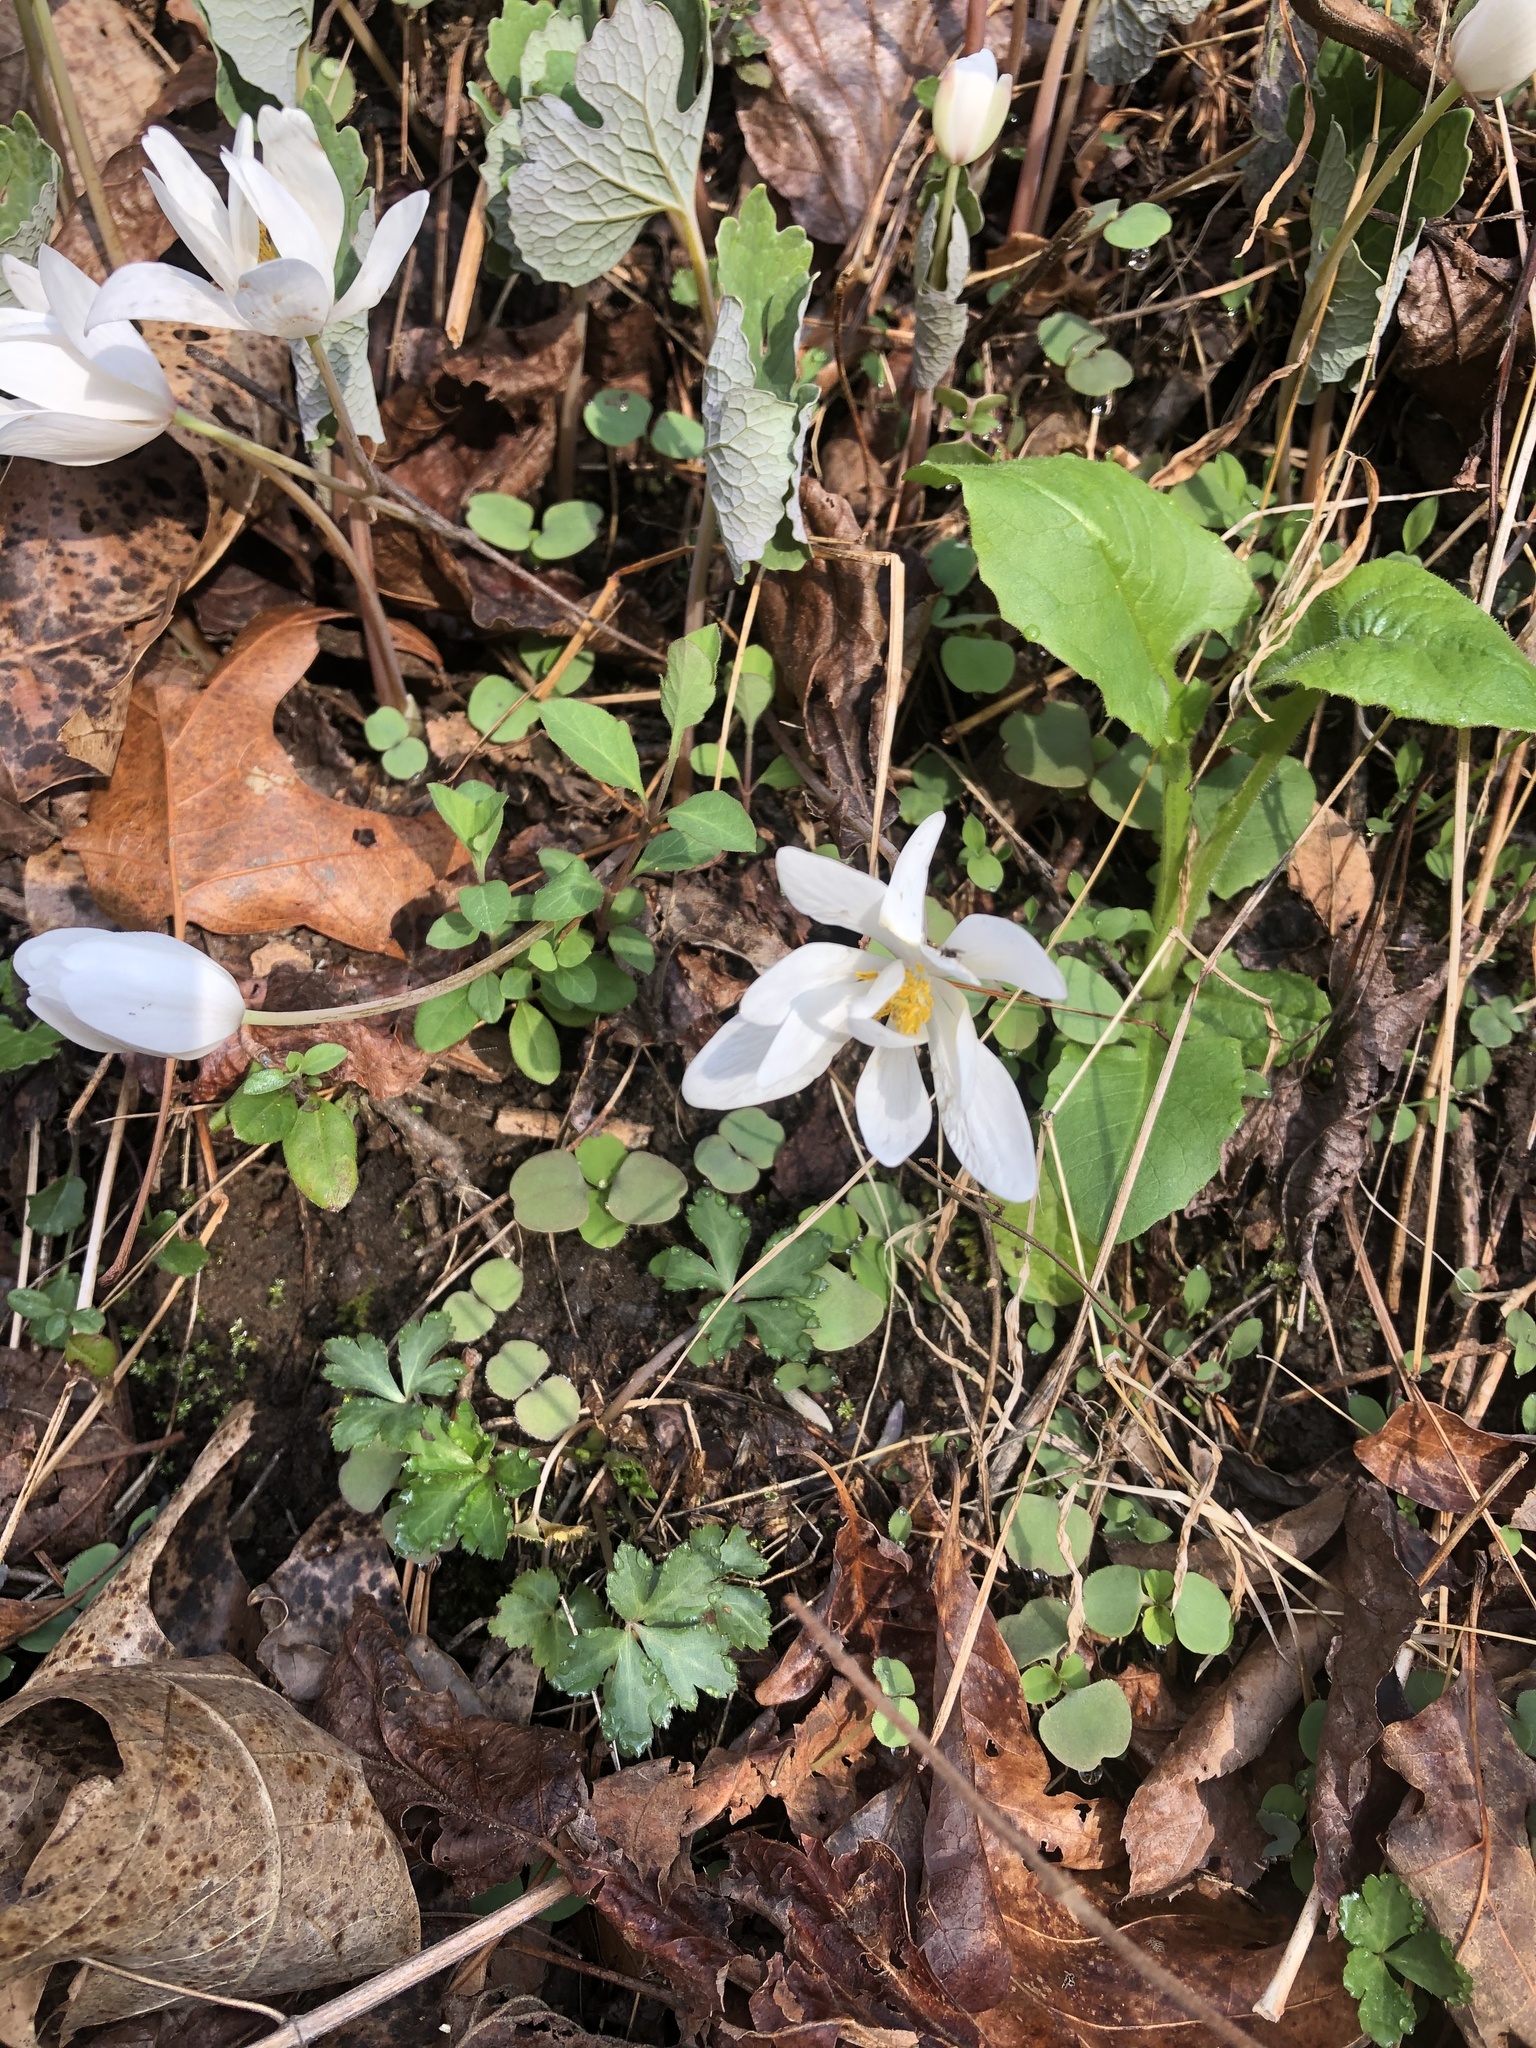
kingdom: Plantae
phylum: Tracheophyta
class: Magnoliopsida
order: Ranunculales
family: Papaveraceae
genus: Sanguinaria
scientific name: Sanguinaria canadensis
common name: Bloodroot
